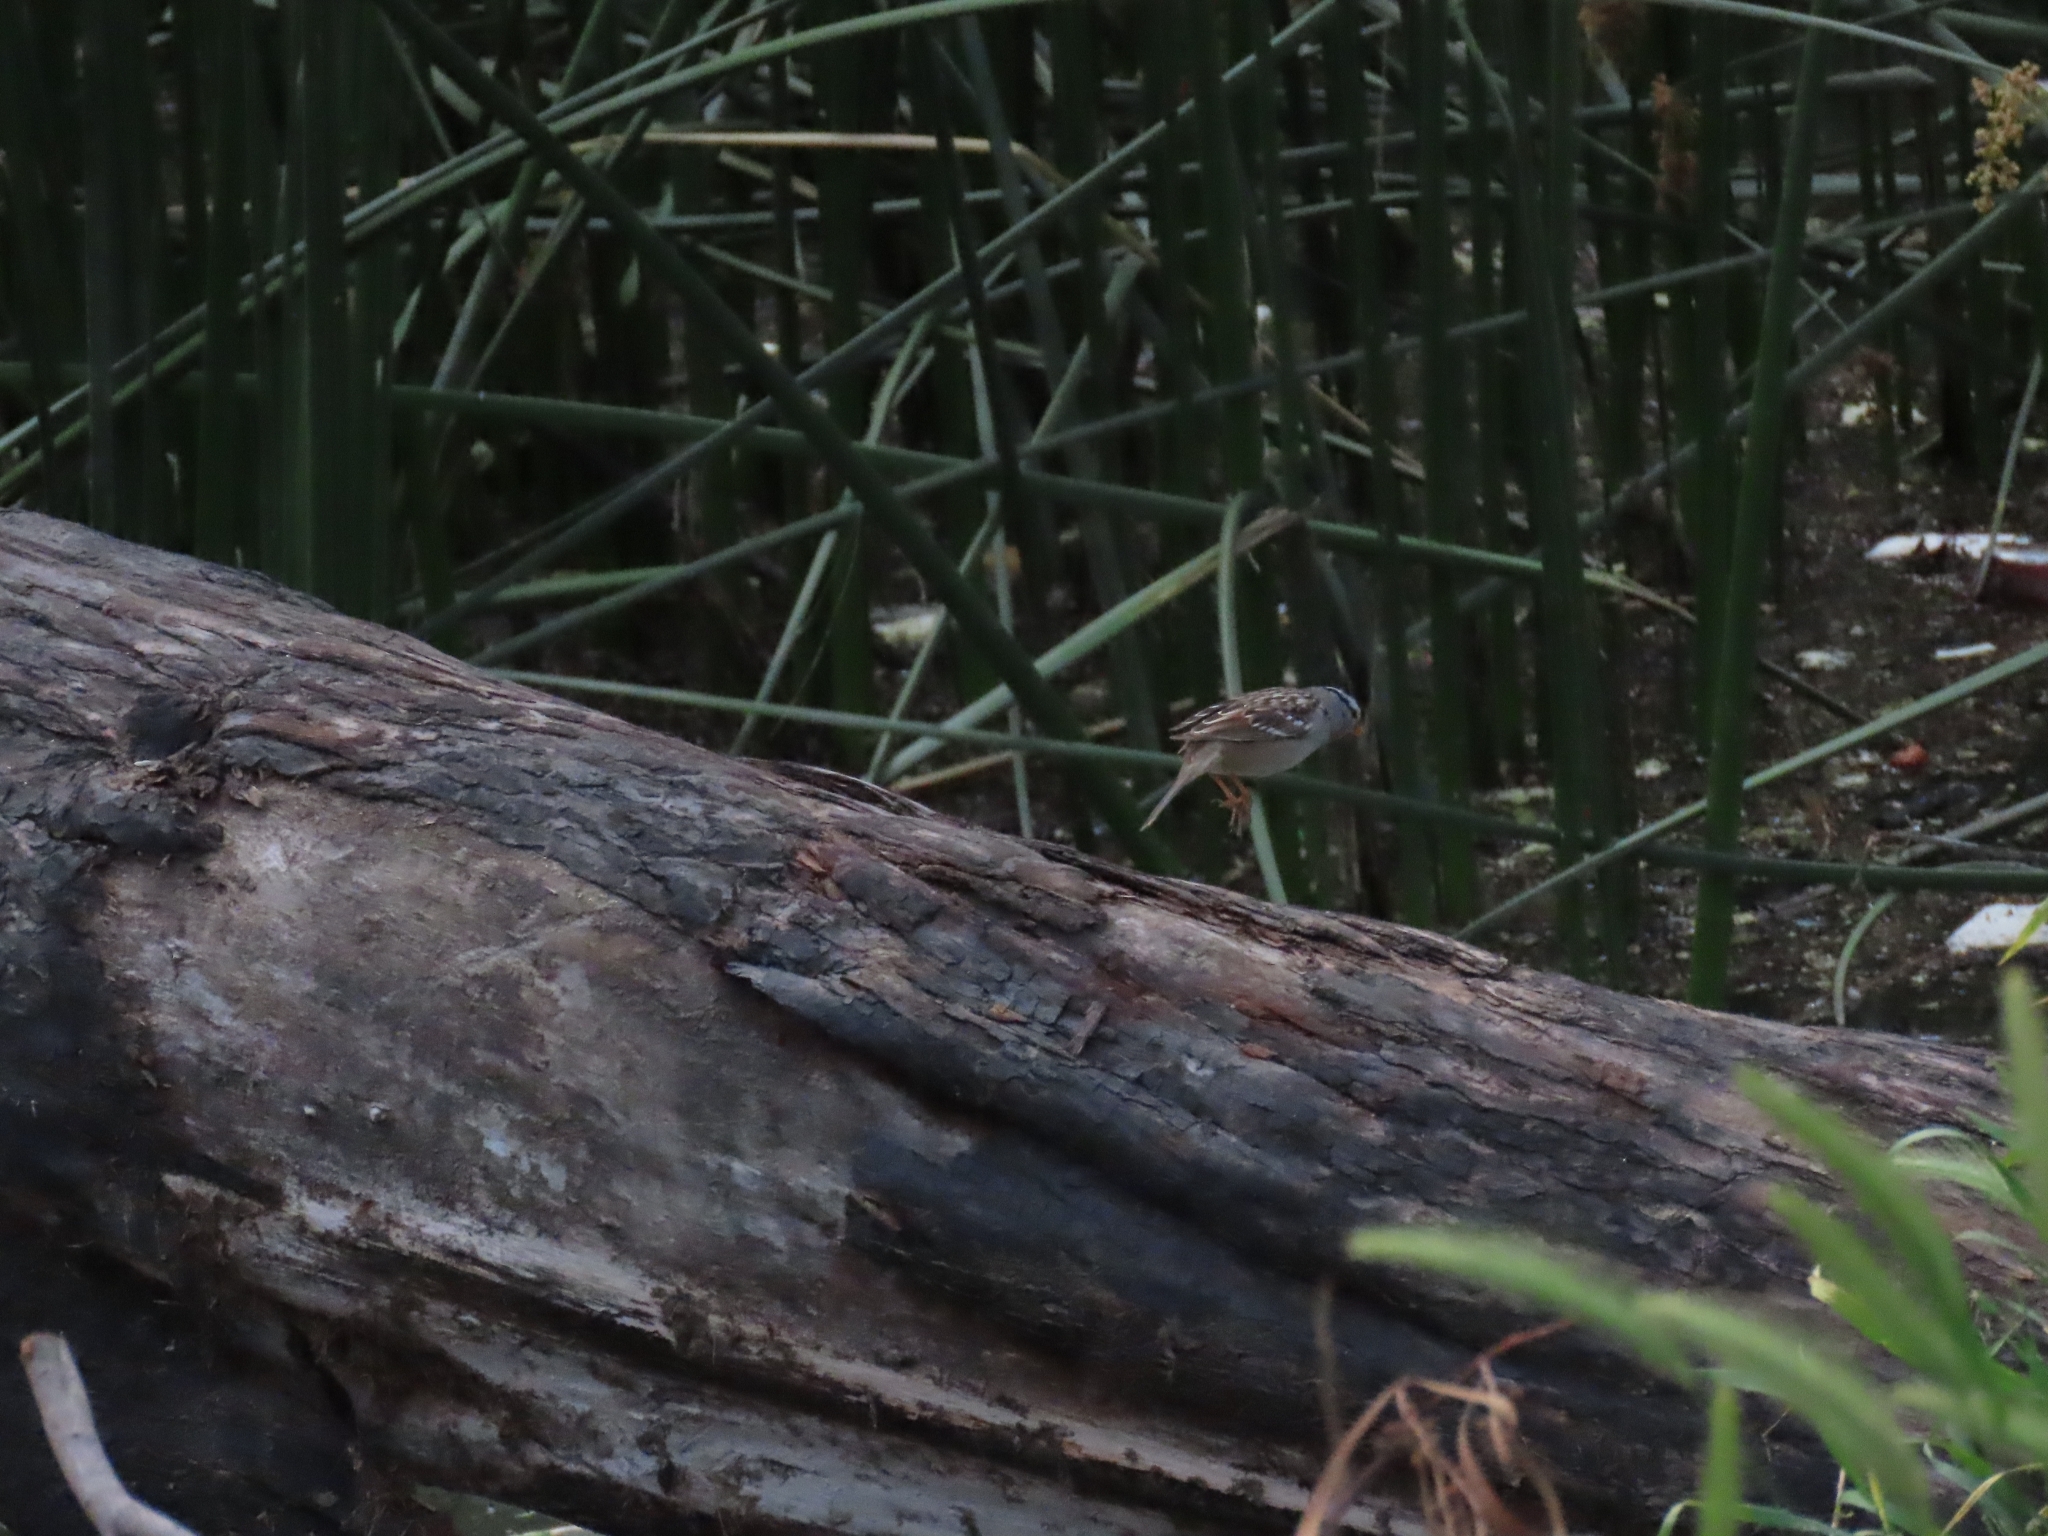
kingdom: Animalia
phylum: Chordata
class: Aves
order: Passeriformes
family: Passerellidae
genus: Zonotrichia
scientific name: Zonotrichia leucophrys
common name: White-crowned sparrow
